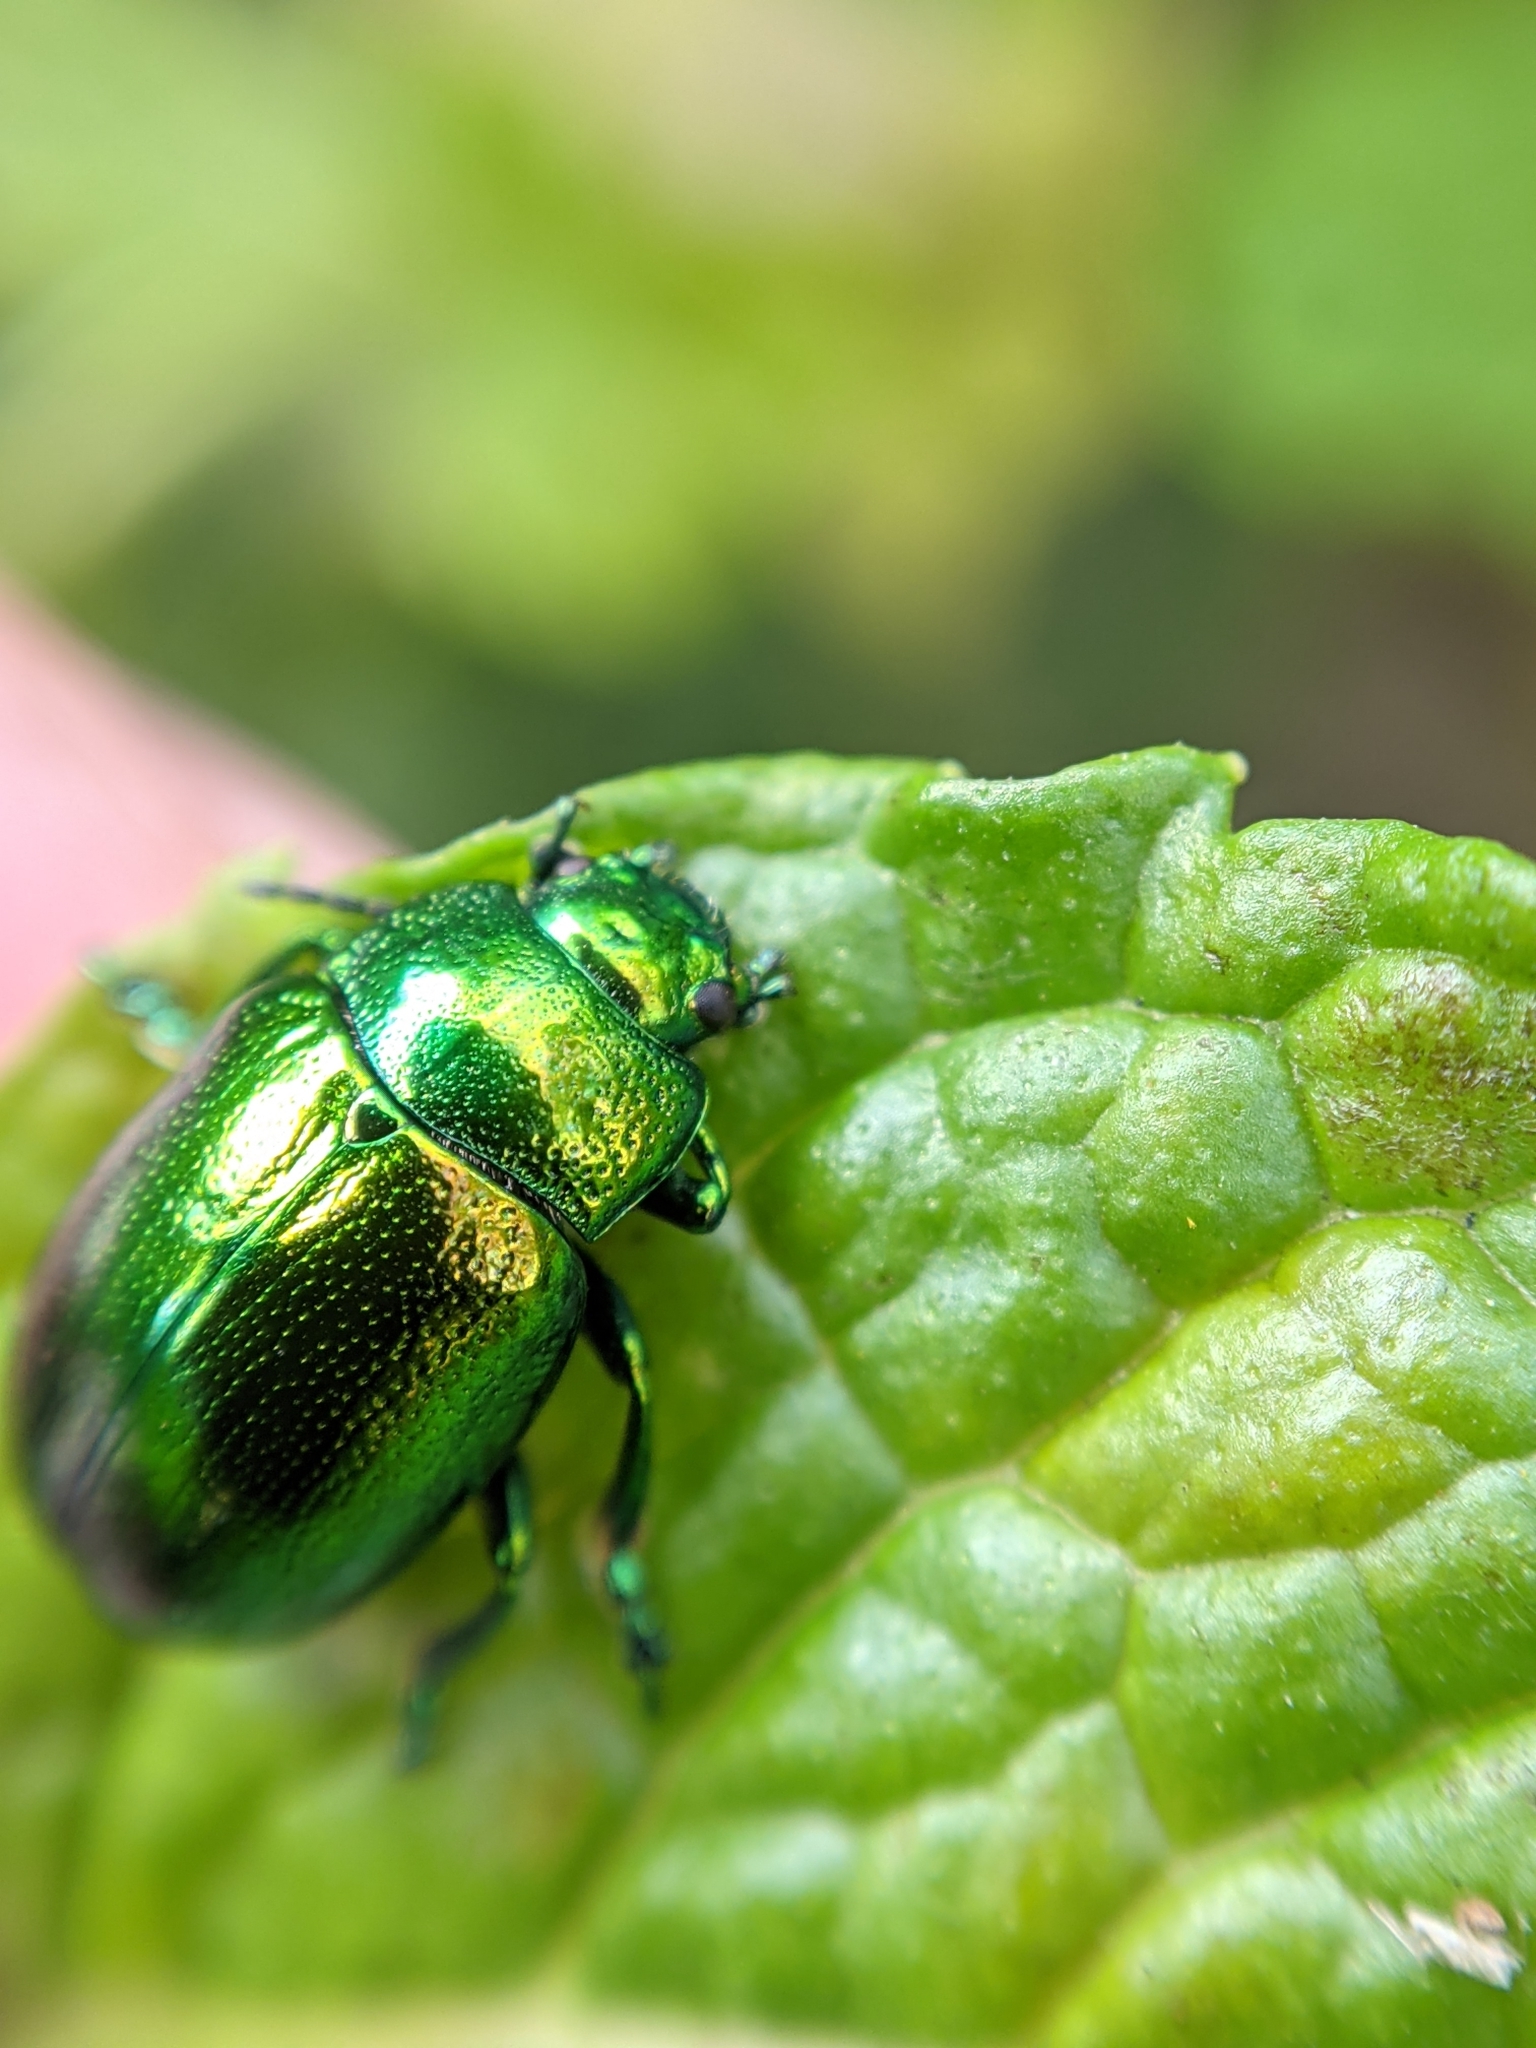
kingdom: Animalia
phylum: Arthropoda
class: Insecta
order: Coleoptera
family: Chrysomelidae
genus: Chrysolina
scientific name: Chrysolina herbacea
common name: Mint leaf beatle
